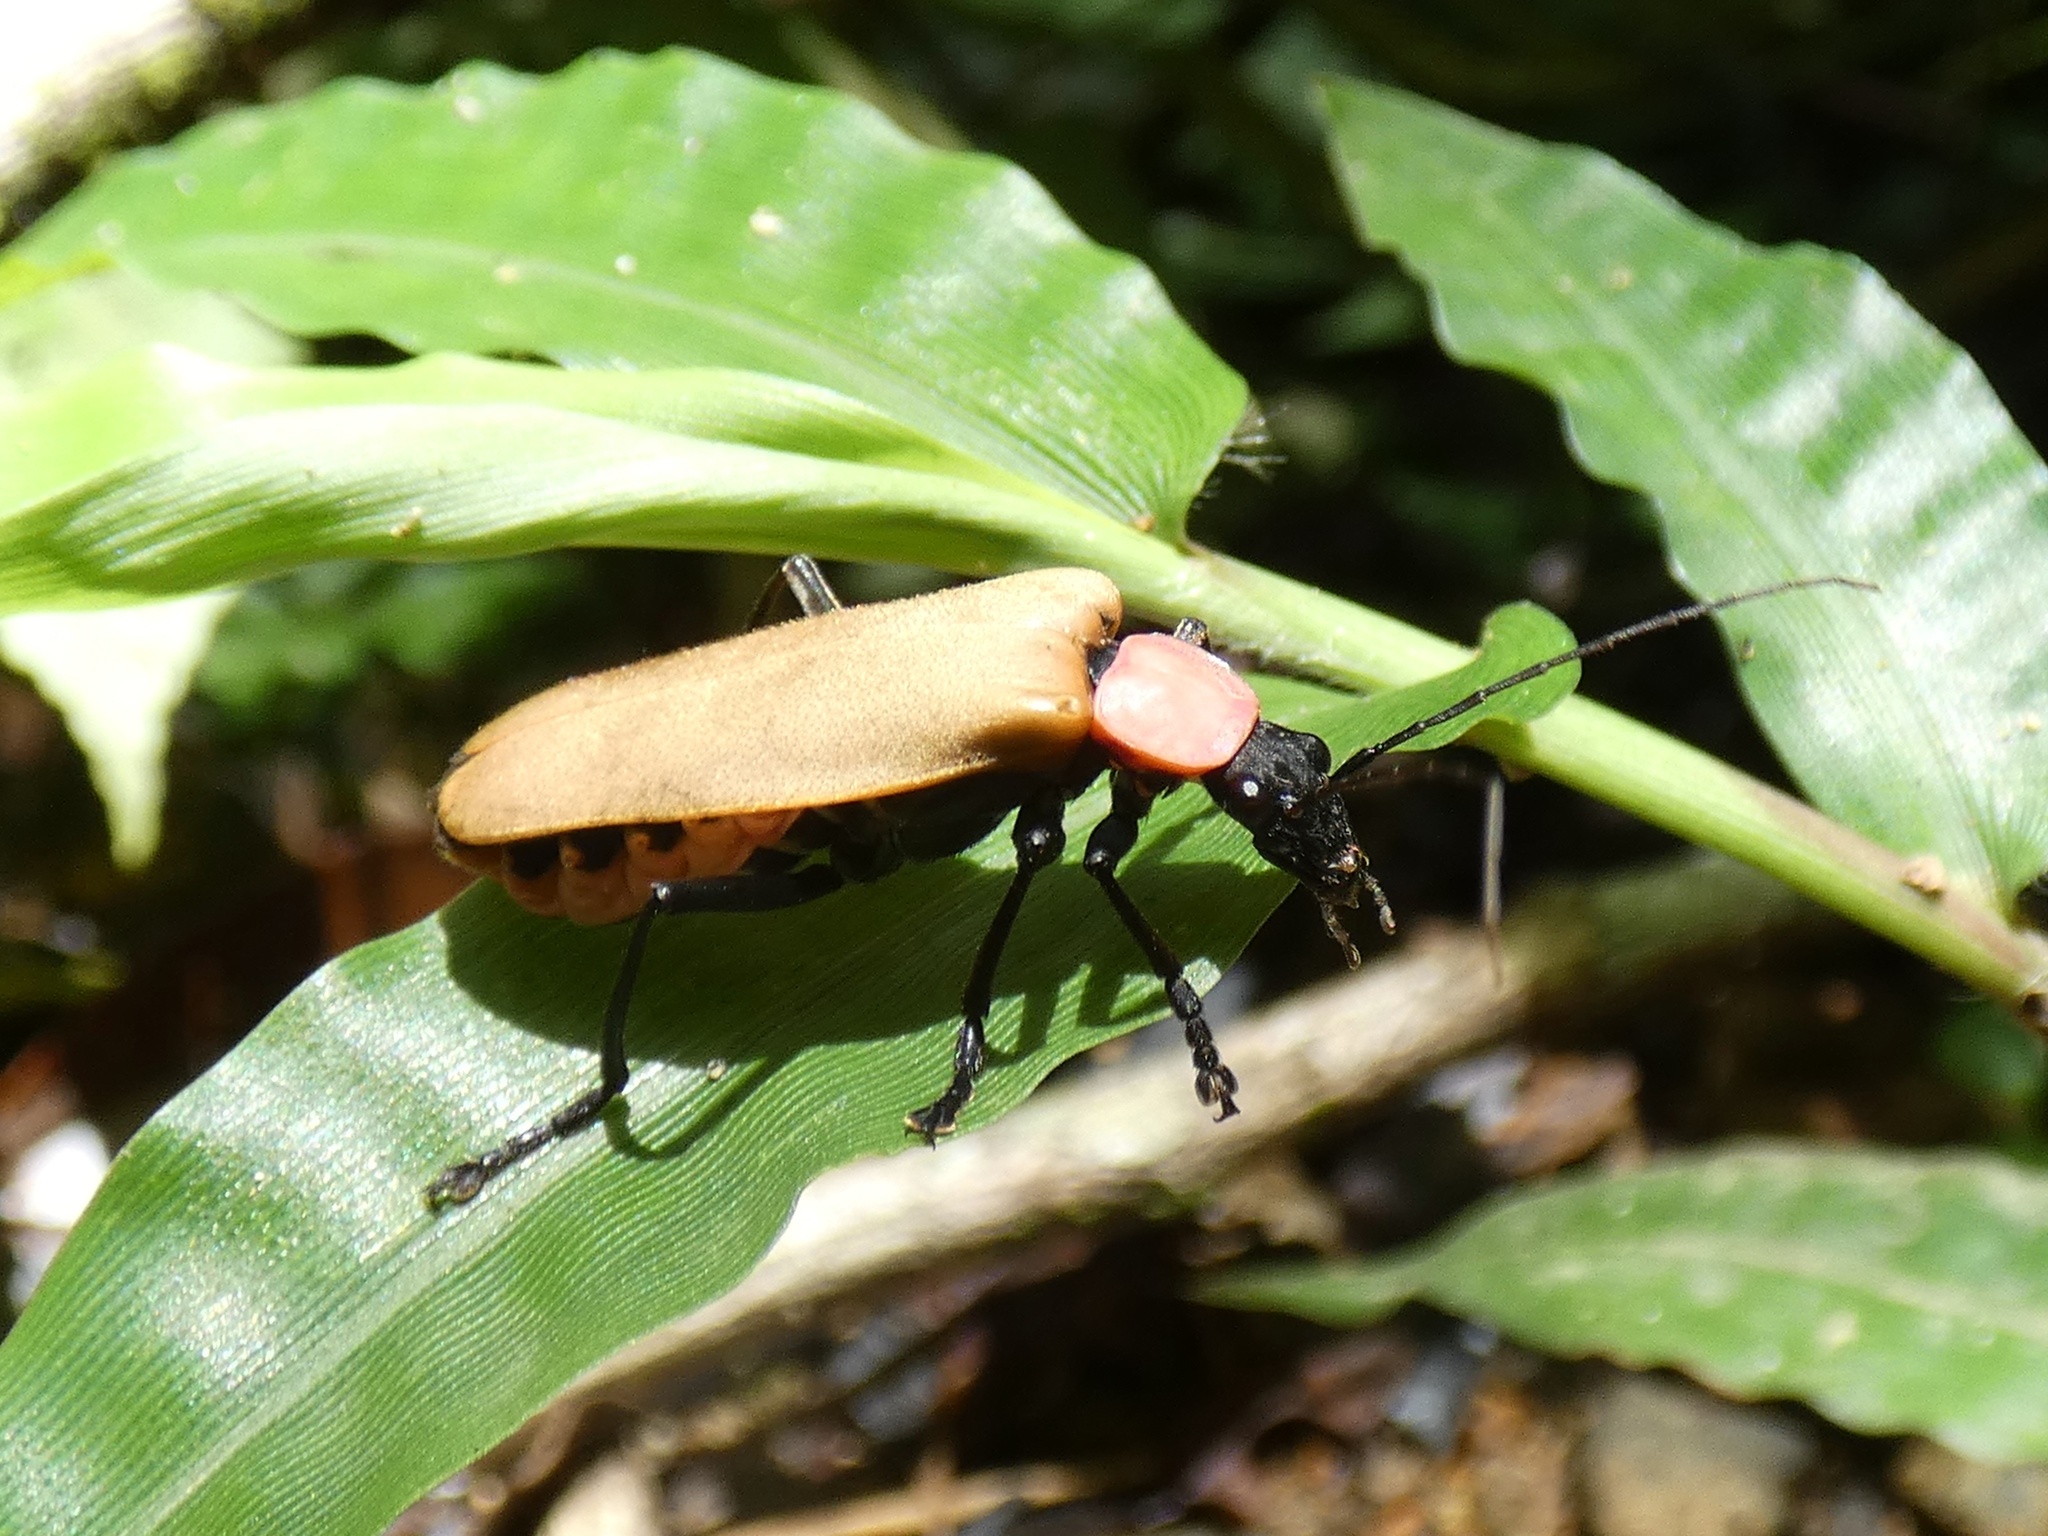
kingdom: Animalia
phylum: Arthropoda
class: Insecta
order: Coleoptera
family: Cantharidae
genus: Chauliognathus
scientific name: Chauliognathus
